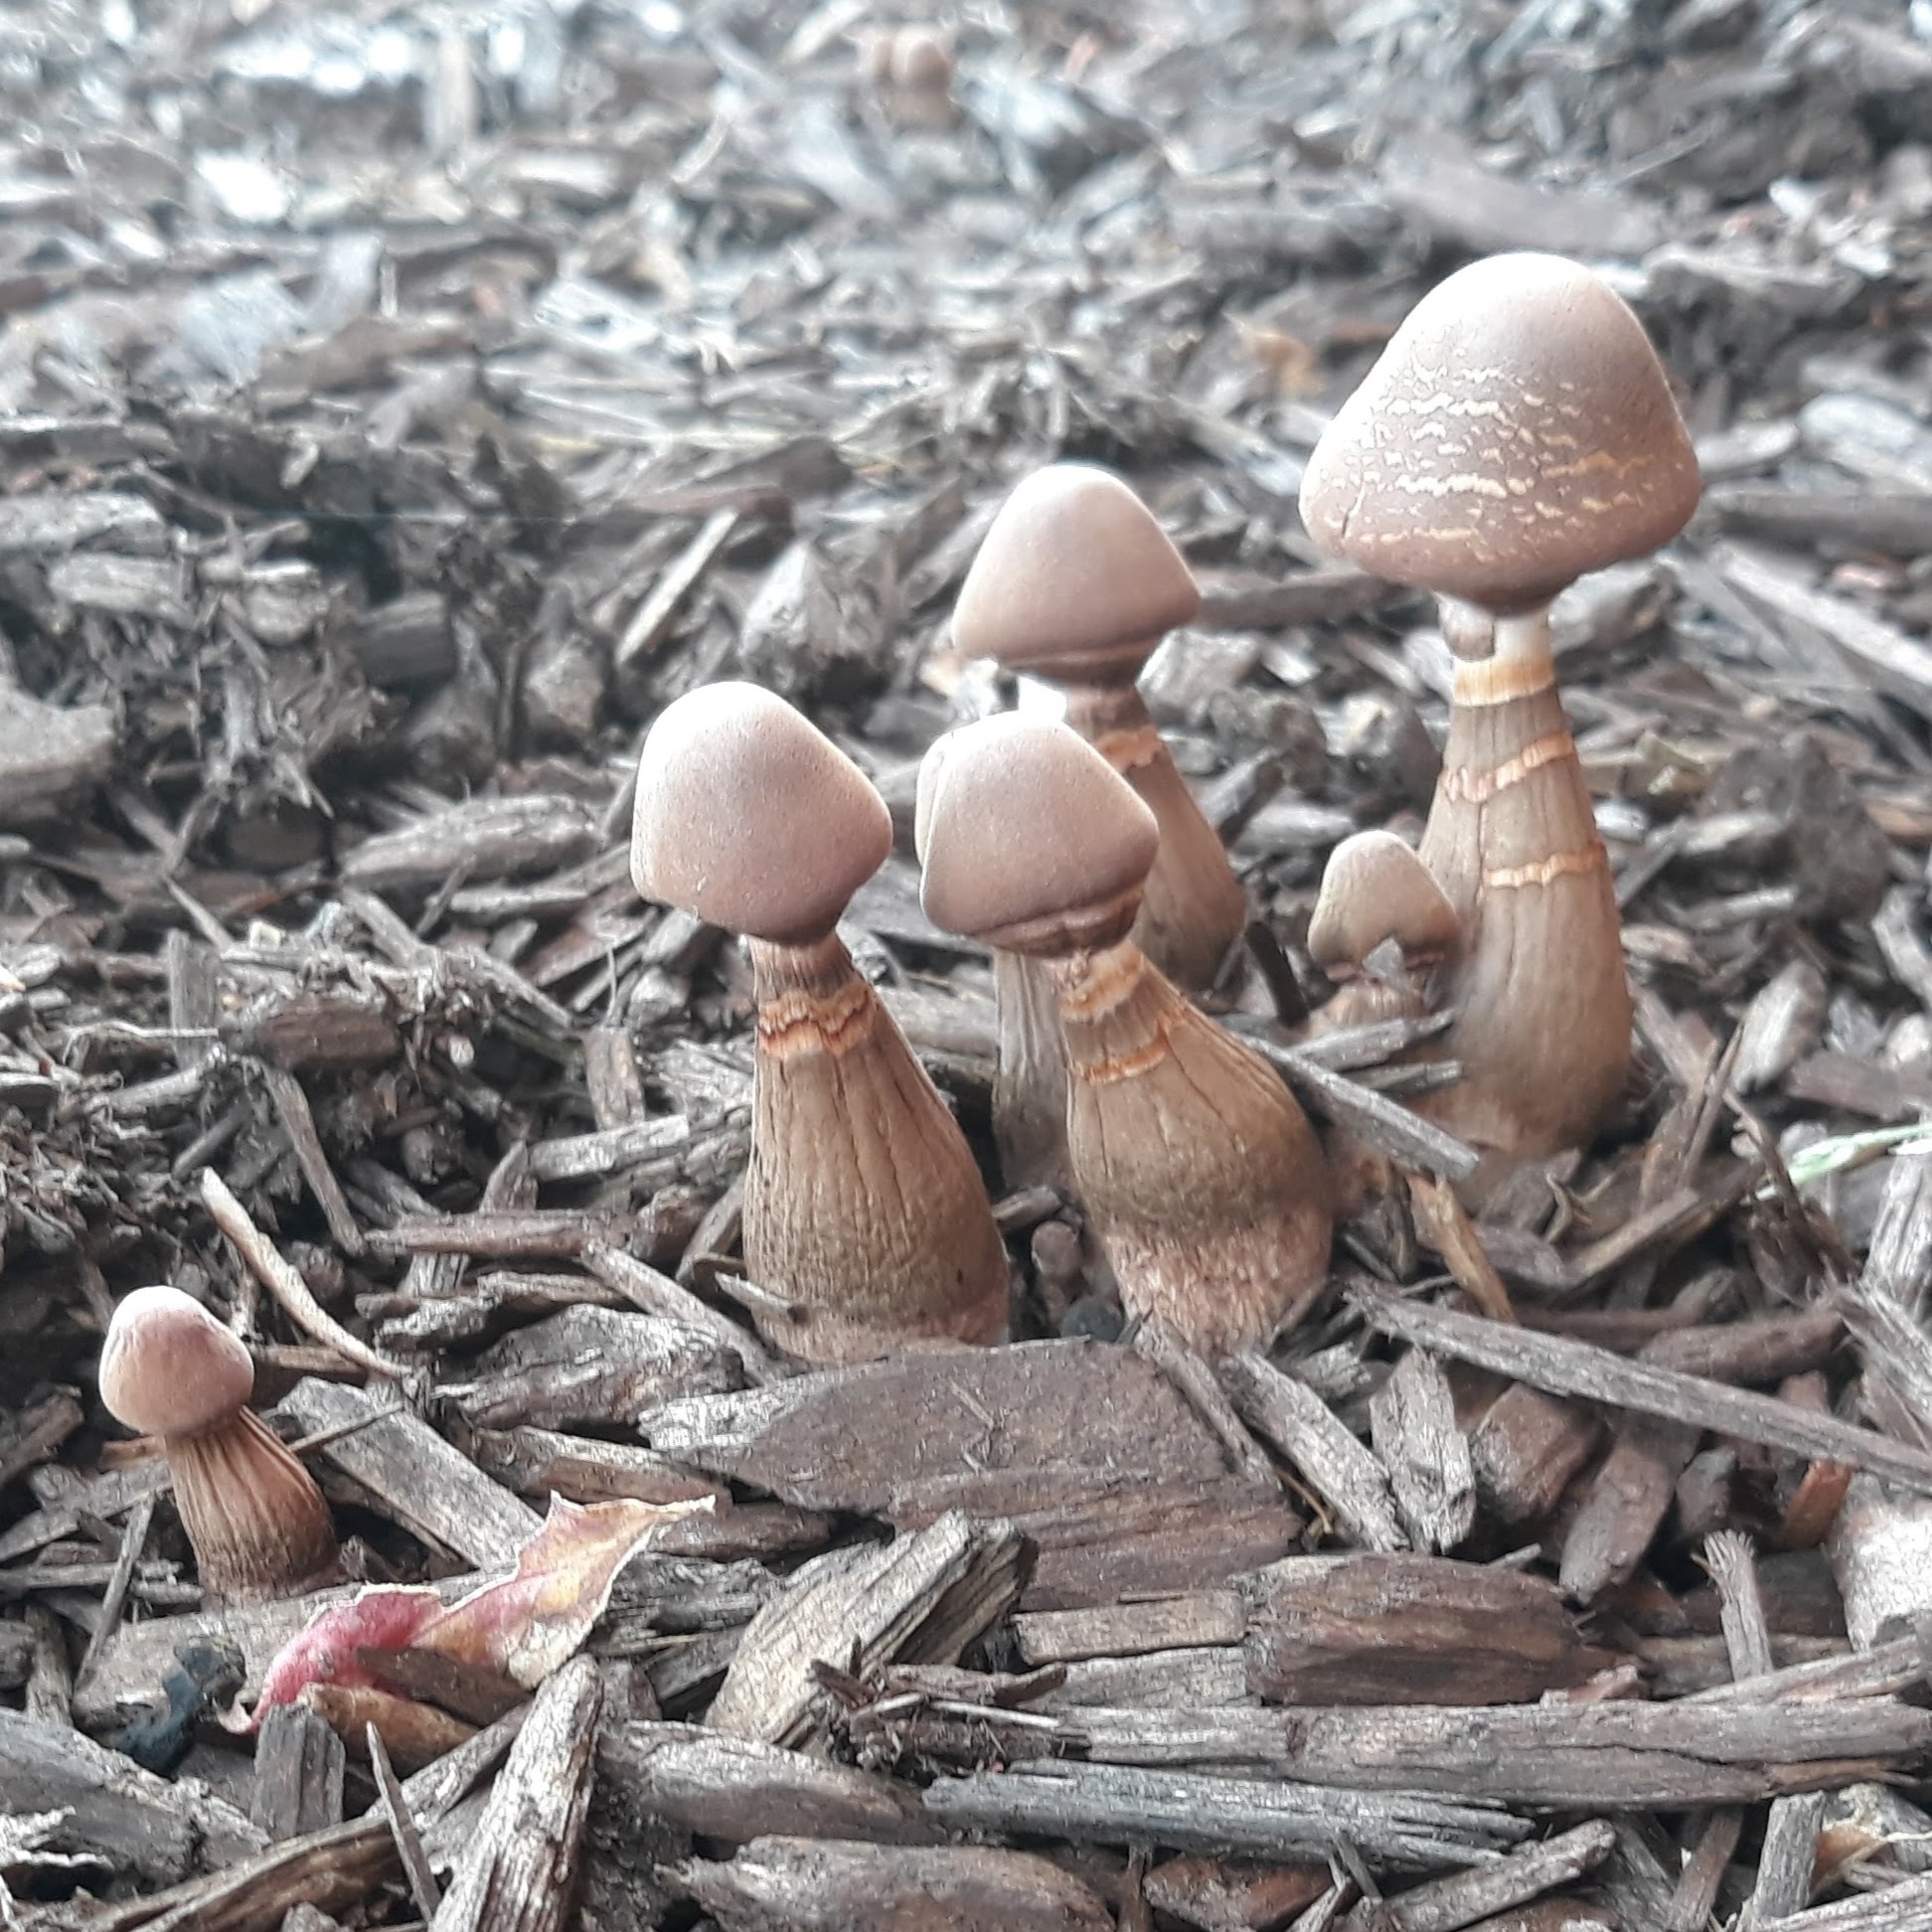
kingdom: Fungi
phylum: Basidiomycota
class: Agaricomycetes
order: Agaricales
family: Agaricaceae
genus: Leucoagaricus
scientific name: Leucoagaricus americanus
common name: Reddening lepiota
